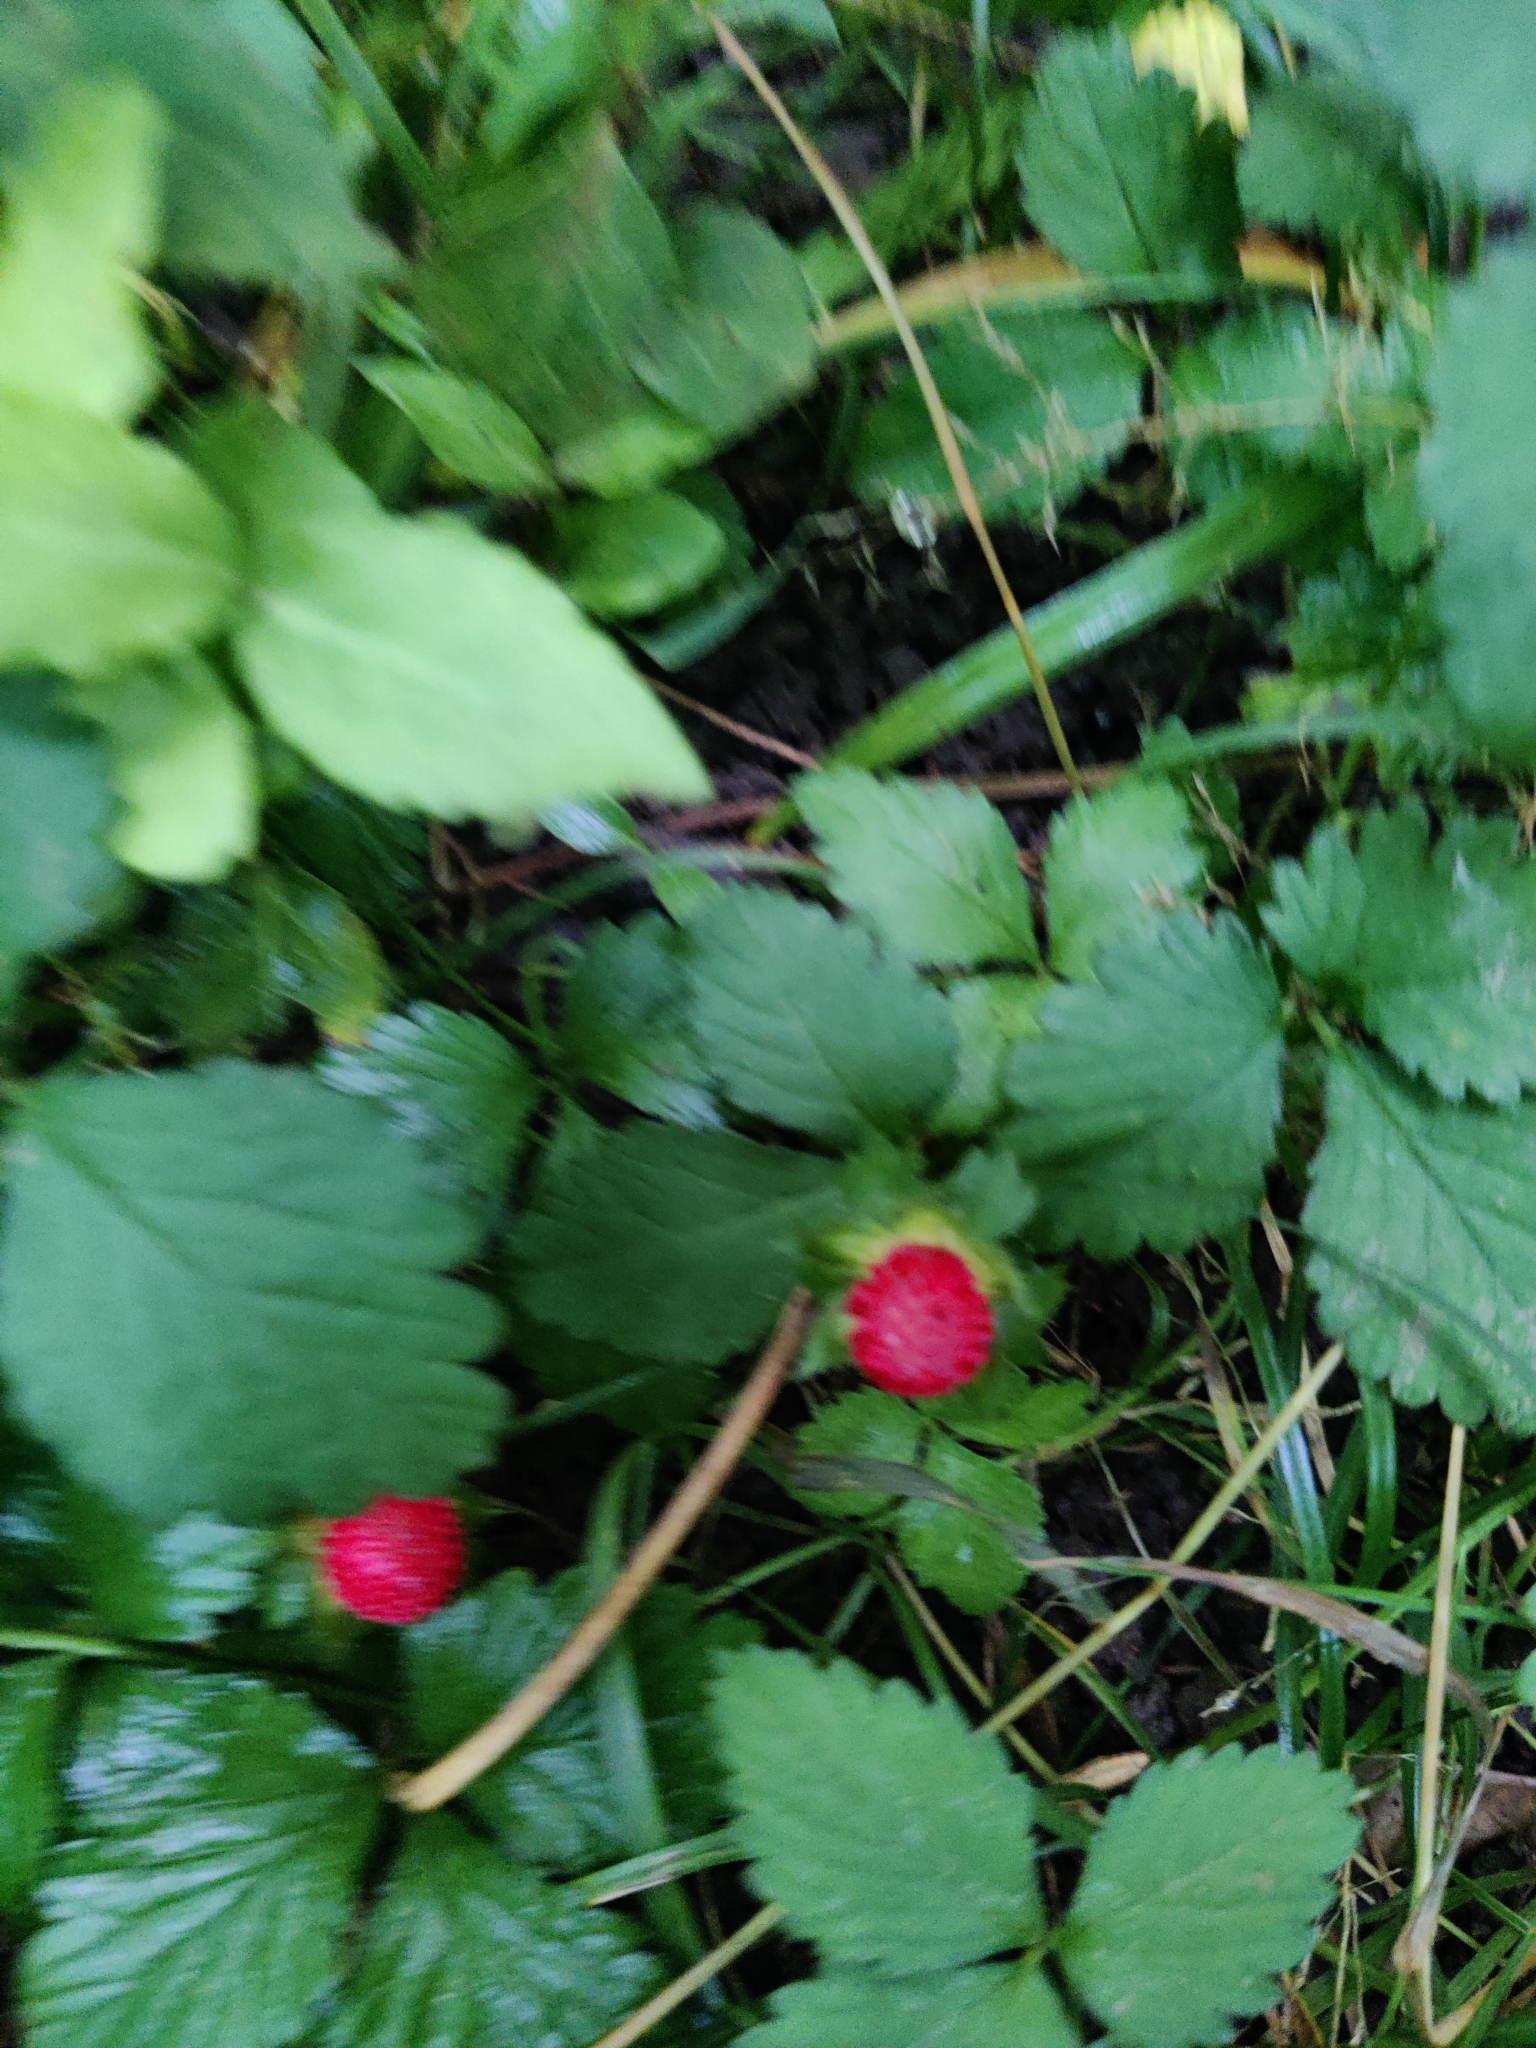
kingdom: Plantae
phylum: Tracheophyta
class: Magnoliopsida
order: Rosales
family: Rosaceae
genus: Potentilla
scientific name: Potentilla indica
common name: Yellow-flowered strawberry
